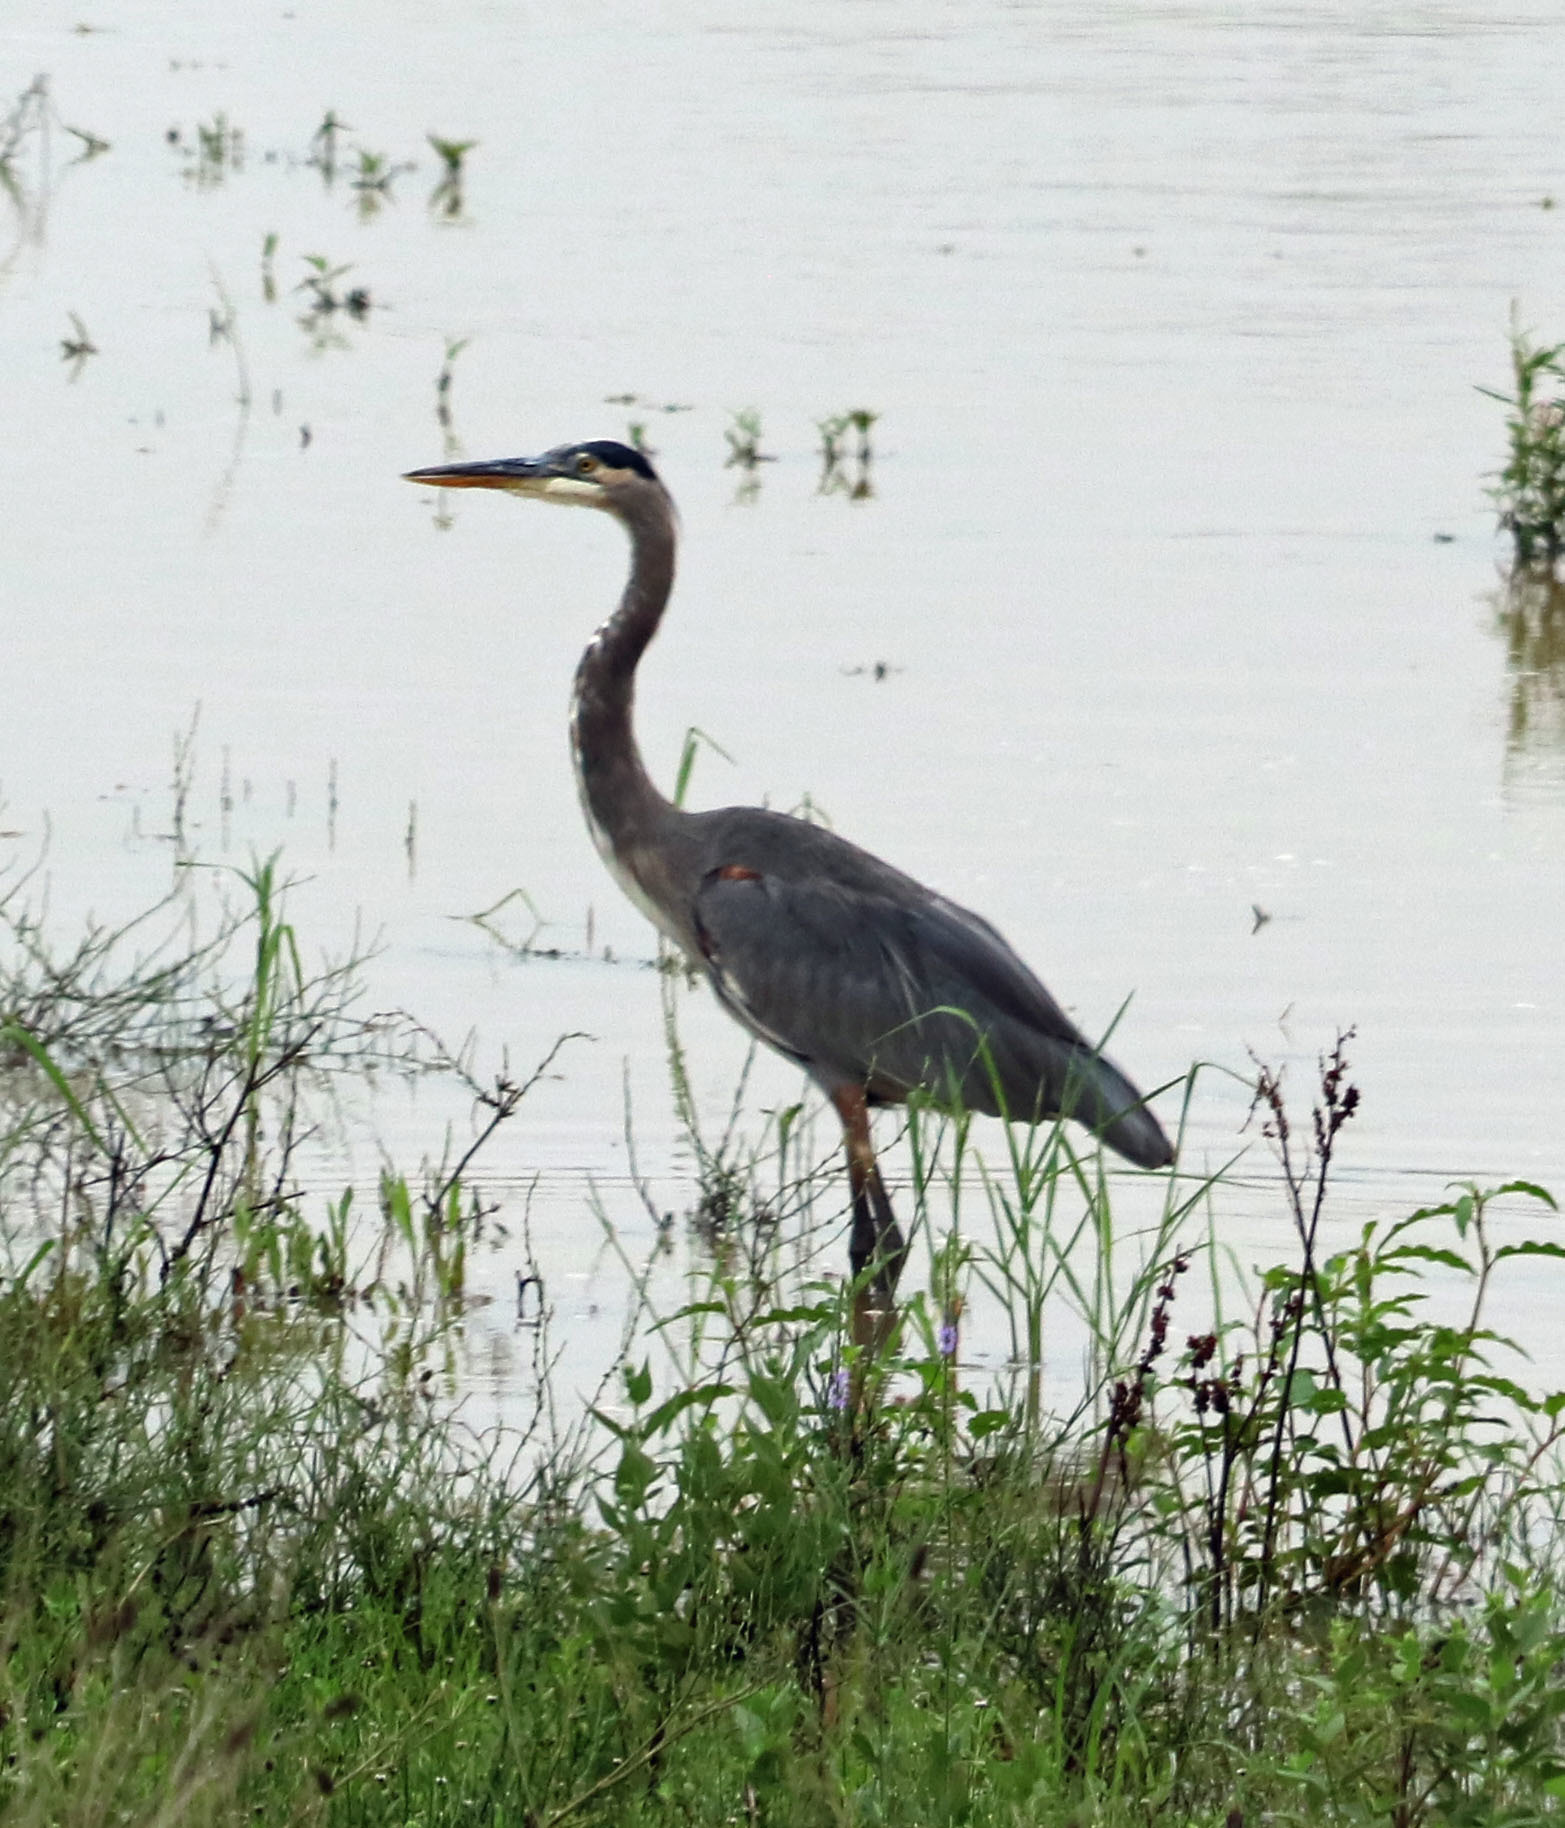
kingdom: Animalia
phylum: Chordata
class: Aves
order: Pelecaniformes
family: Ardeidae
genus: Ardea
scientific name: Ardea herodias
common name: Great blue heron
